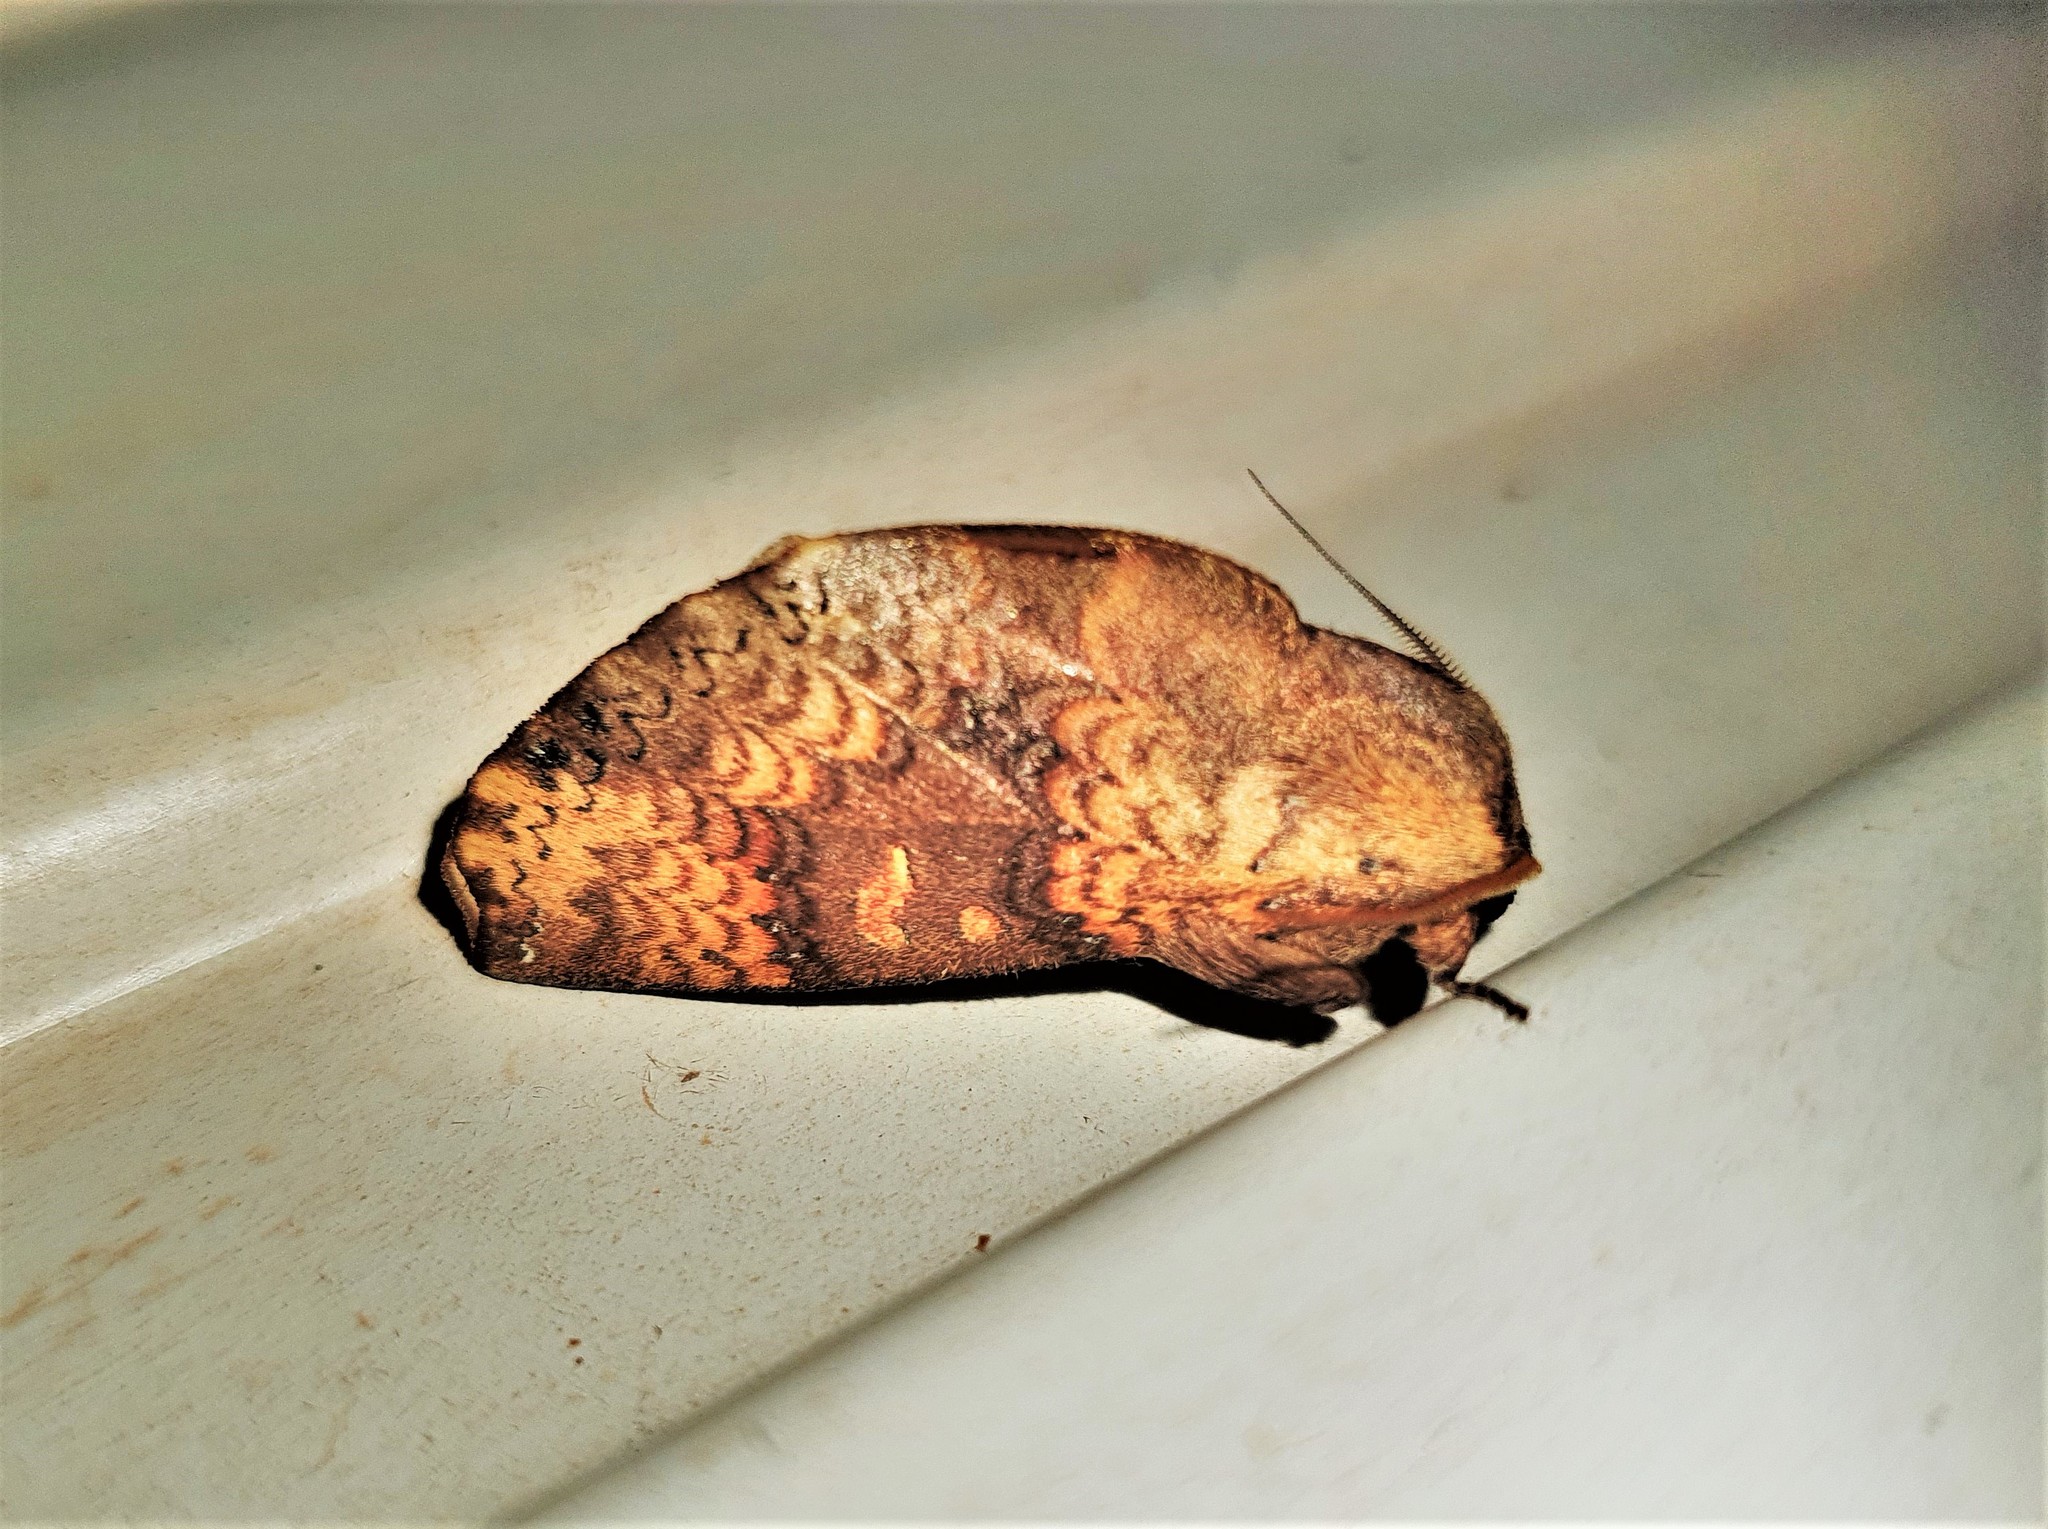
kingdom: Animalia
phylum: Arthropoda
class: Insecta
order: Lepidoptera
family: Notodontidae
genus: Chliara
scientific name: Chliara mediostriga
